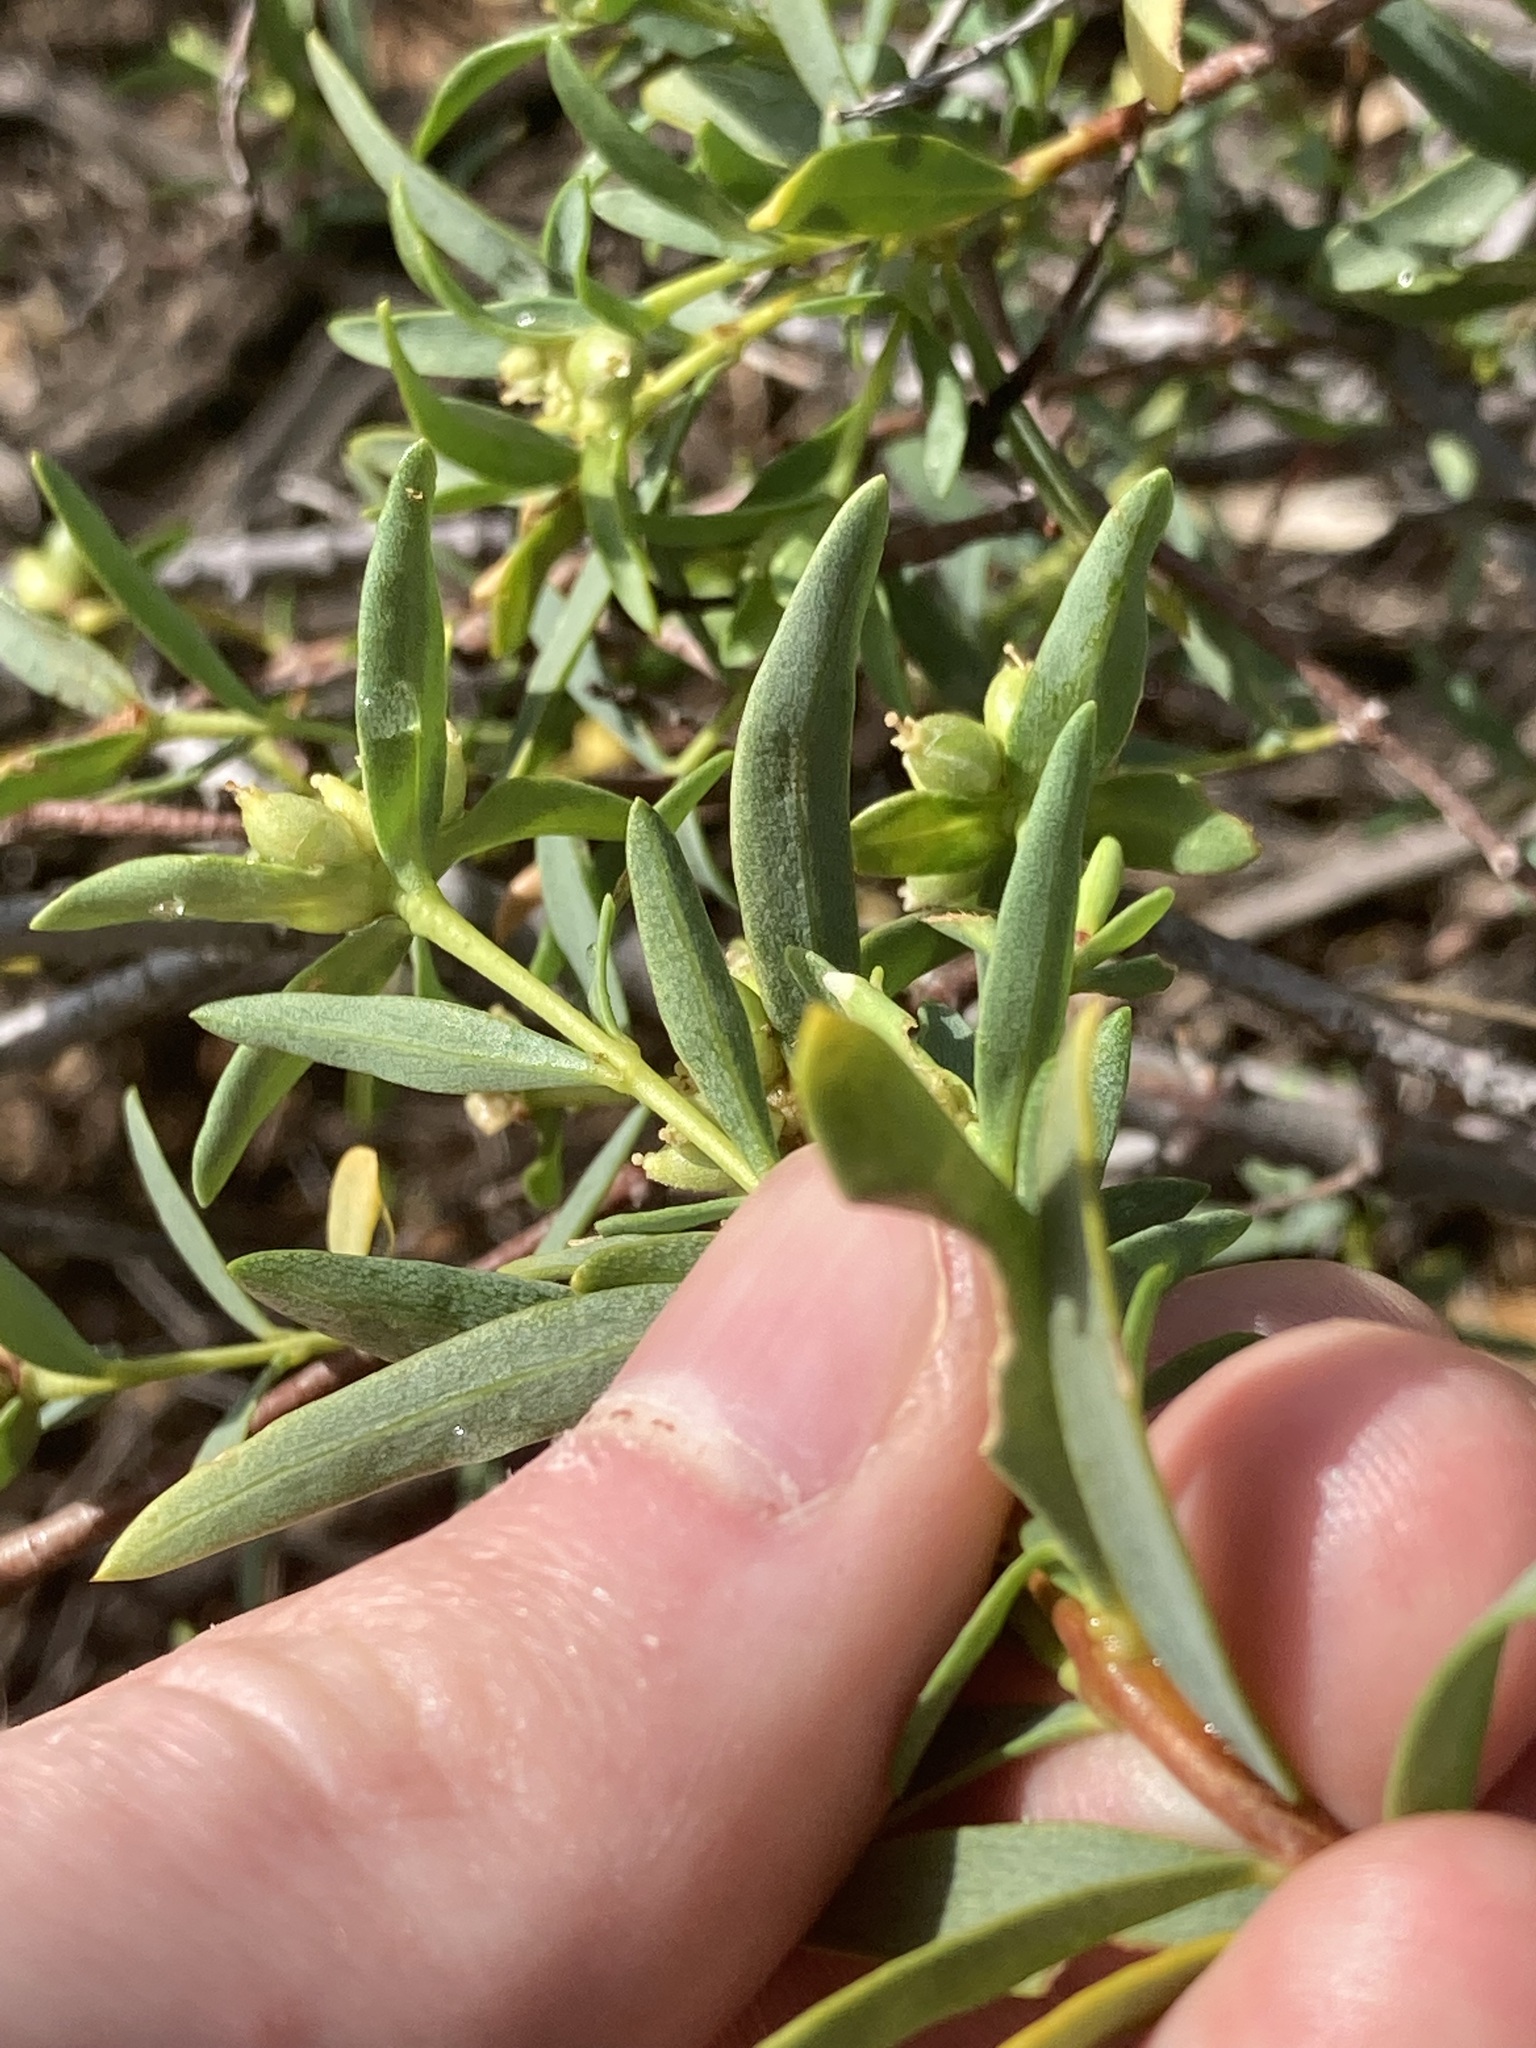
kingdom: Plantae
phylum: Tracheophyta
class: Magnoliopsida
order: Malvales
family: Thymelaeaceae
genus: Pimelea
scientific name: Pimelea microcephala
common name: Mallee riceflower
